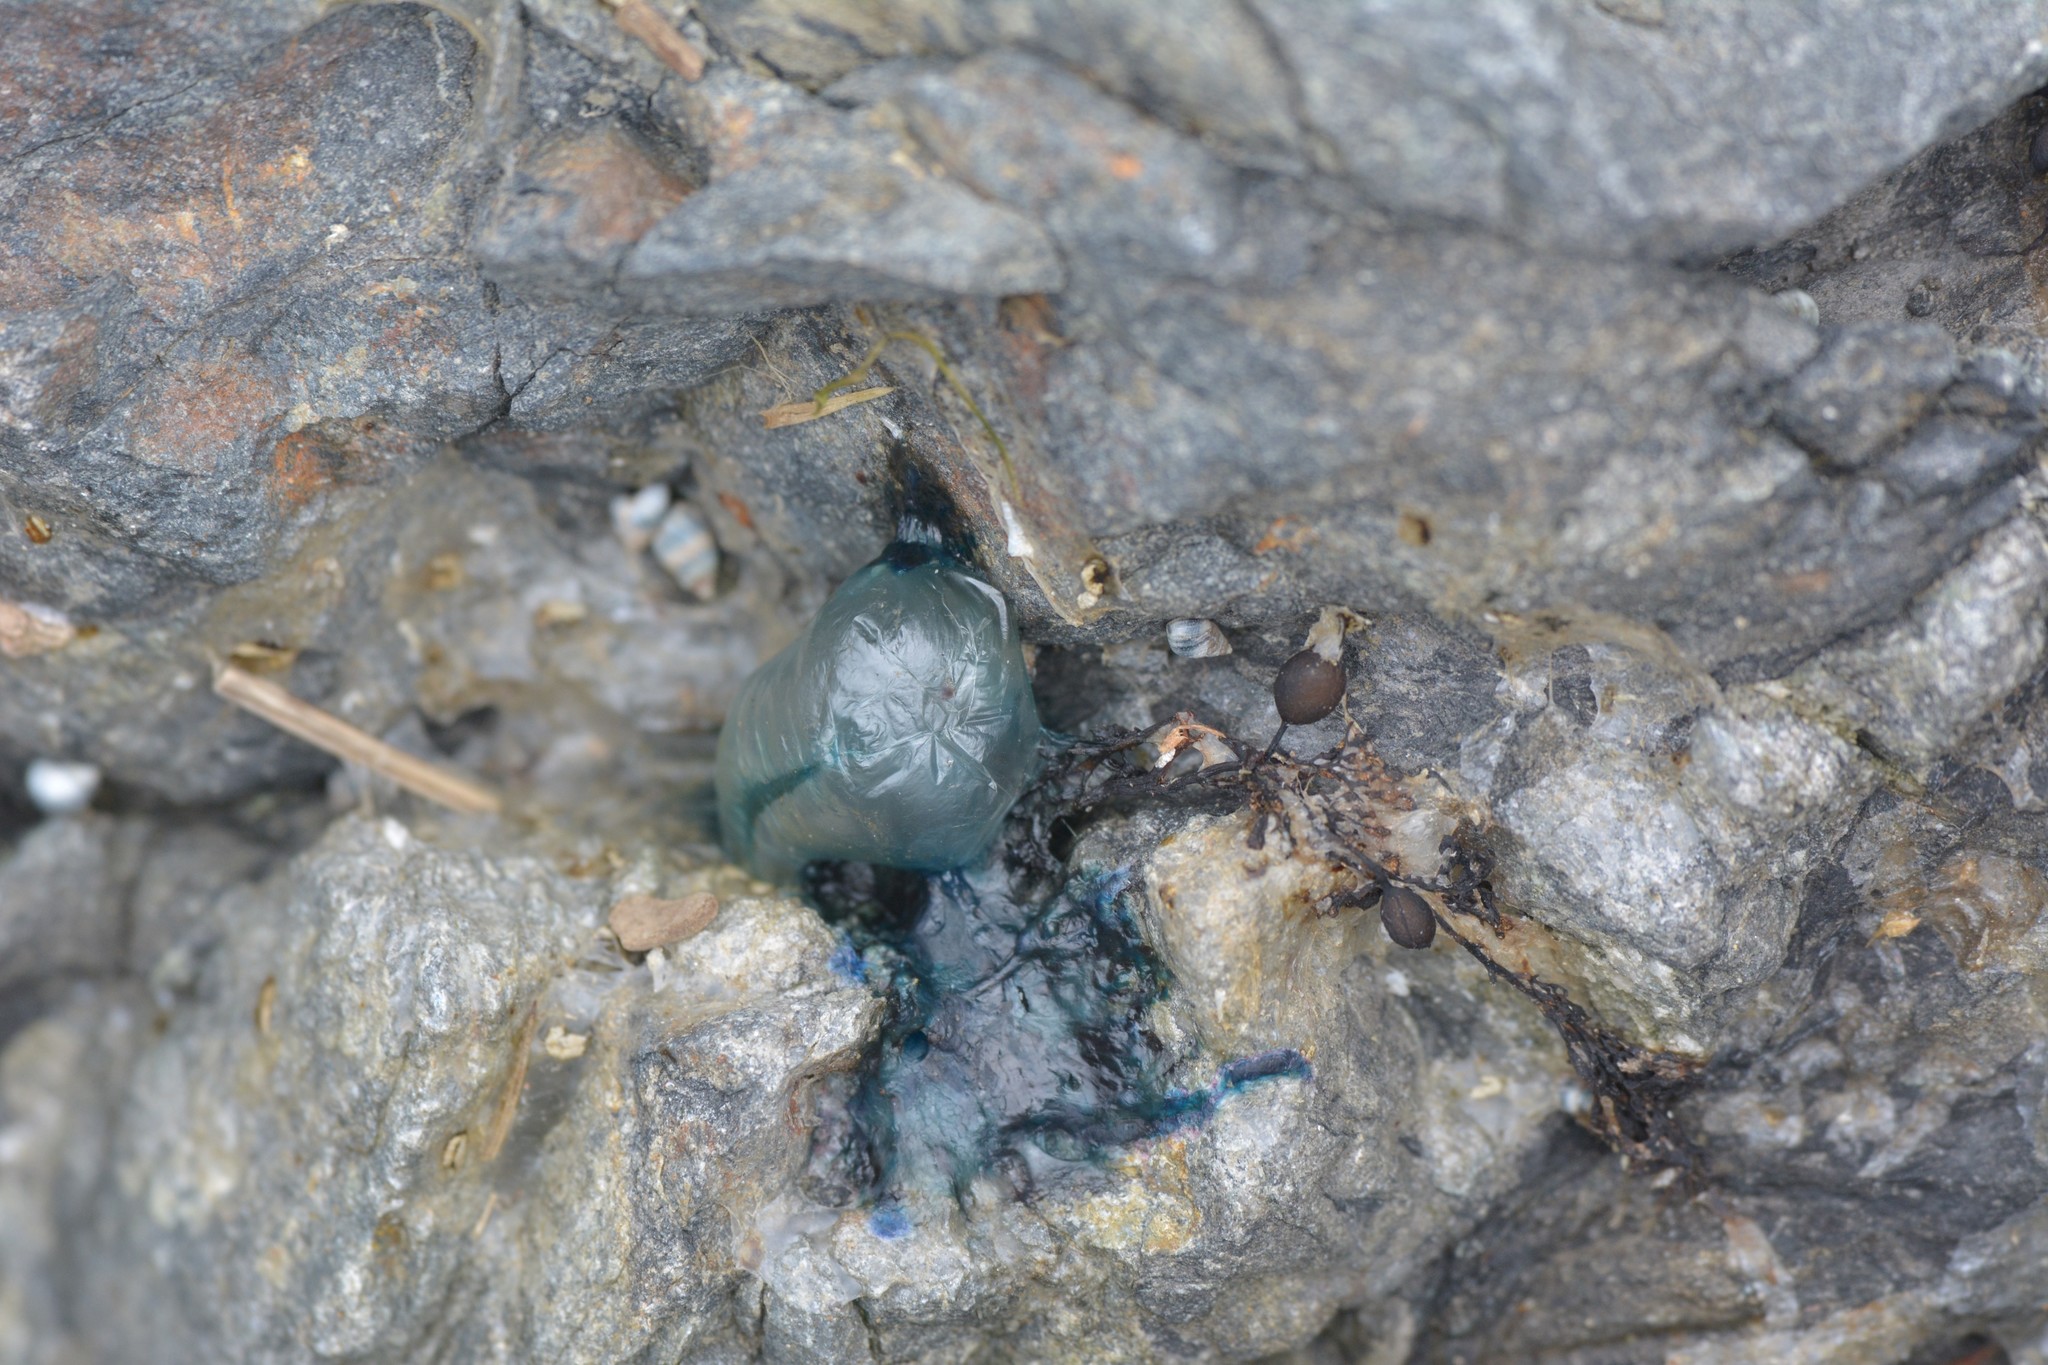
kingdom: Animalia
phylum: Cnidaria
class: Hydrozoa
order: Siphonophorae
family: Physaliidae
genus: Physalia
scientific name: Physalia physalis
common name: Portuguese man-of-war
